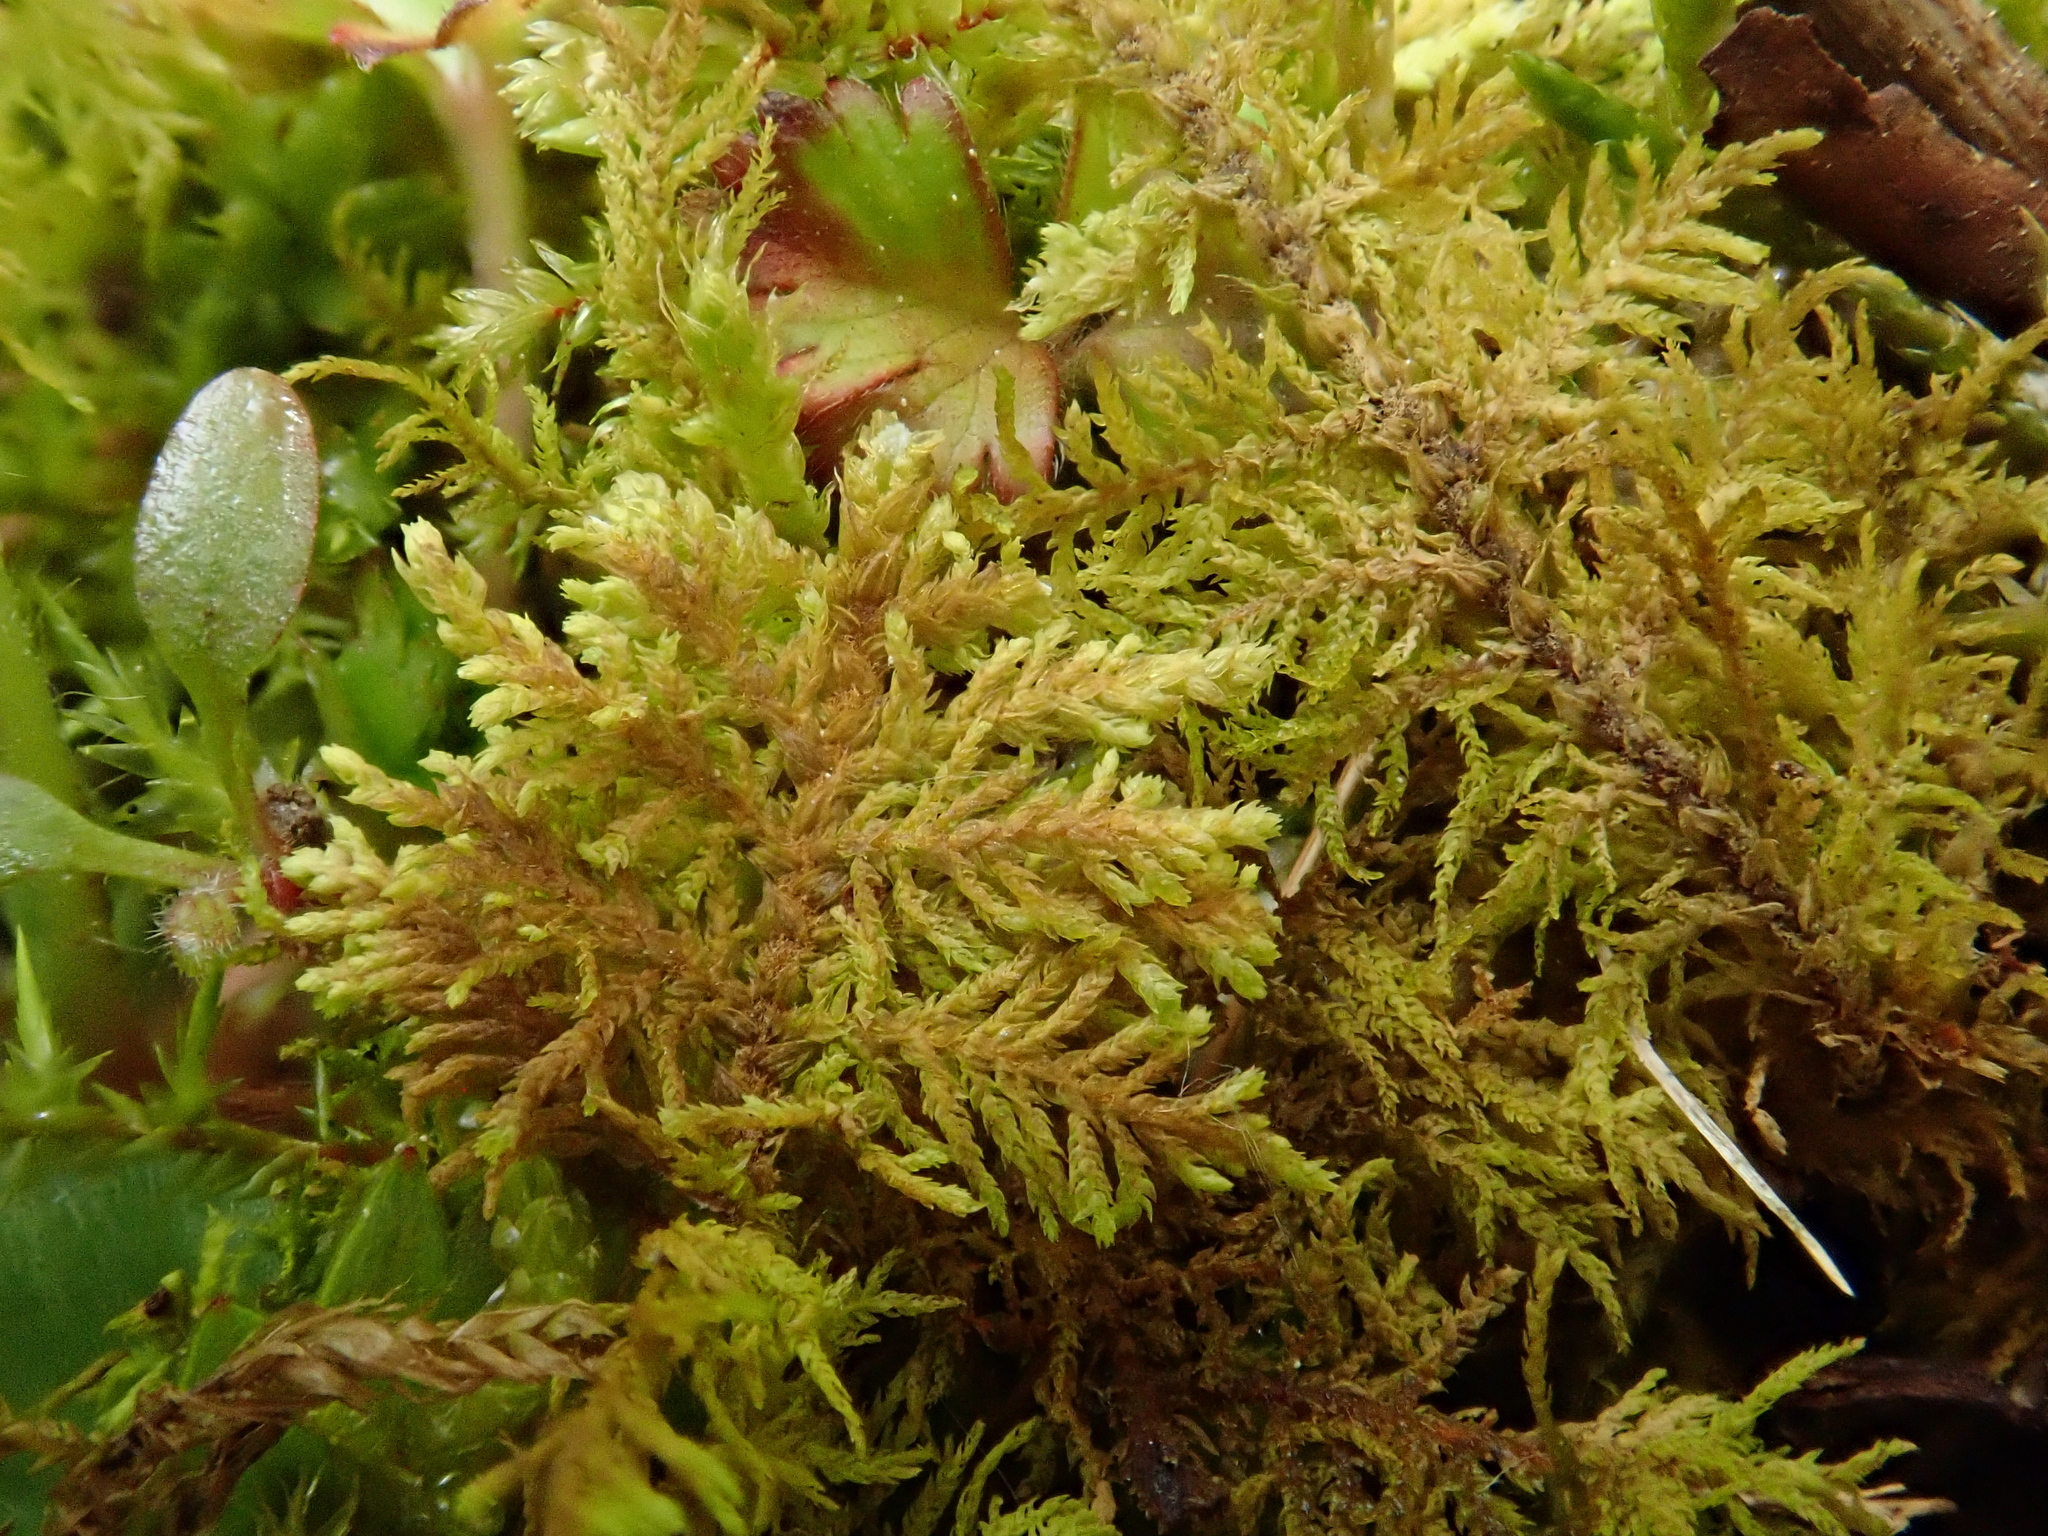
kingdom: Plantae
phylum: Bryophyta
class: Bryopsida
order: Hypnales
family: Thuidiaceae
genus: Thuidium
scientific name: Thuidium assimile
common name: Philibert's fern moss
